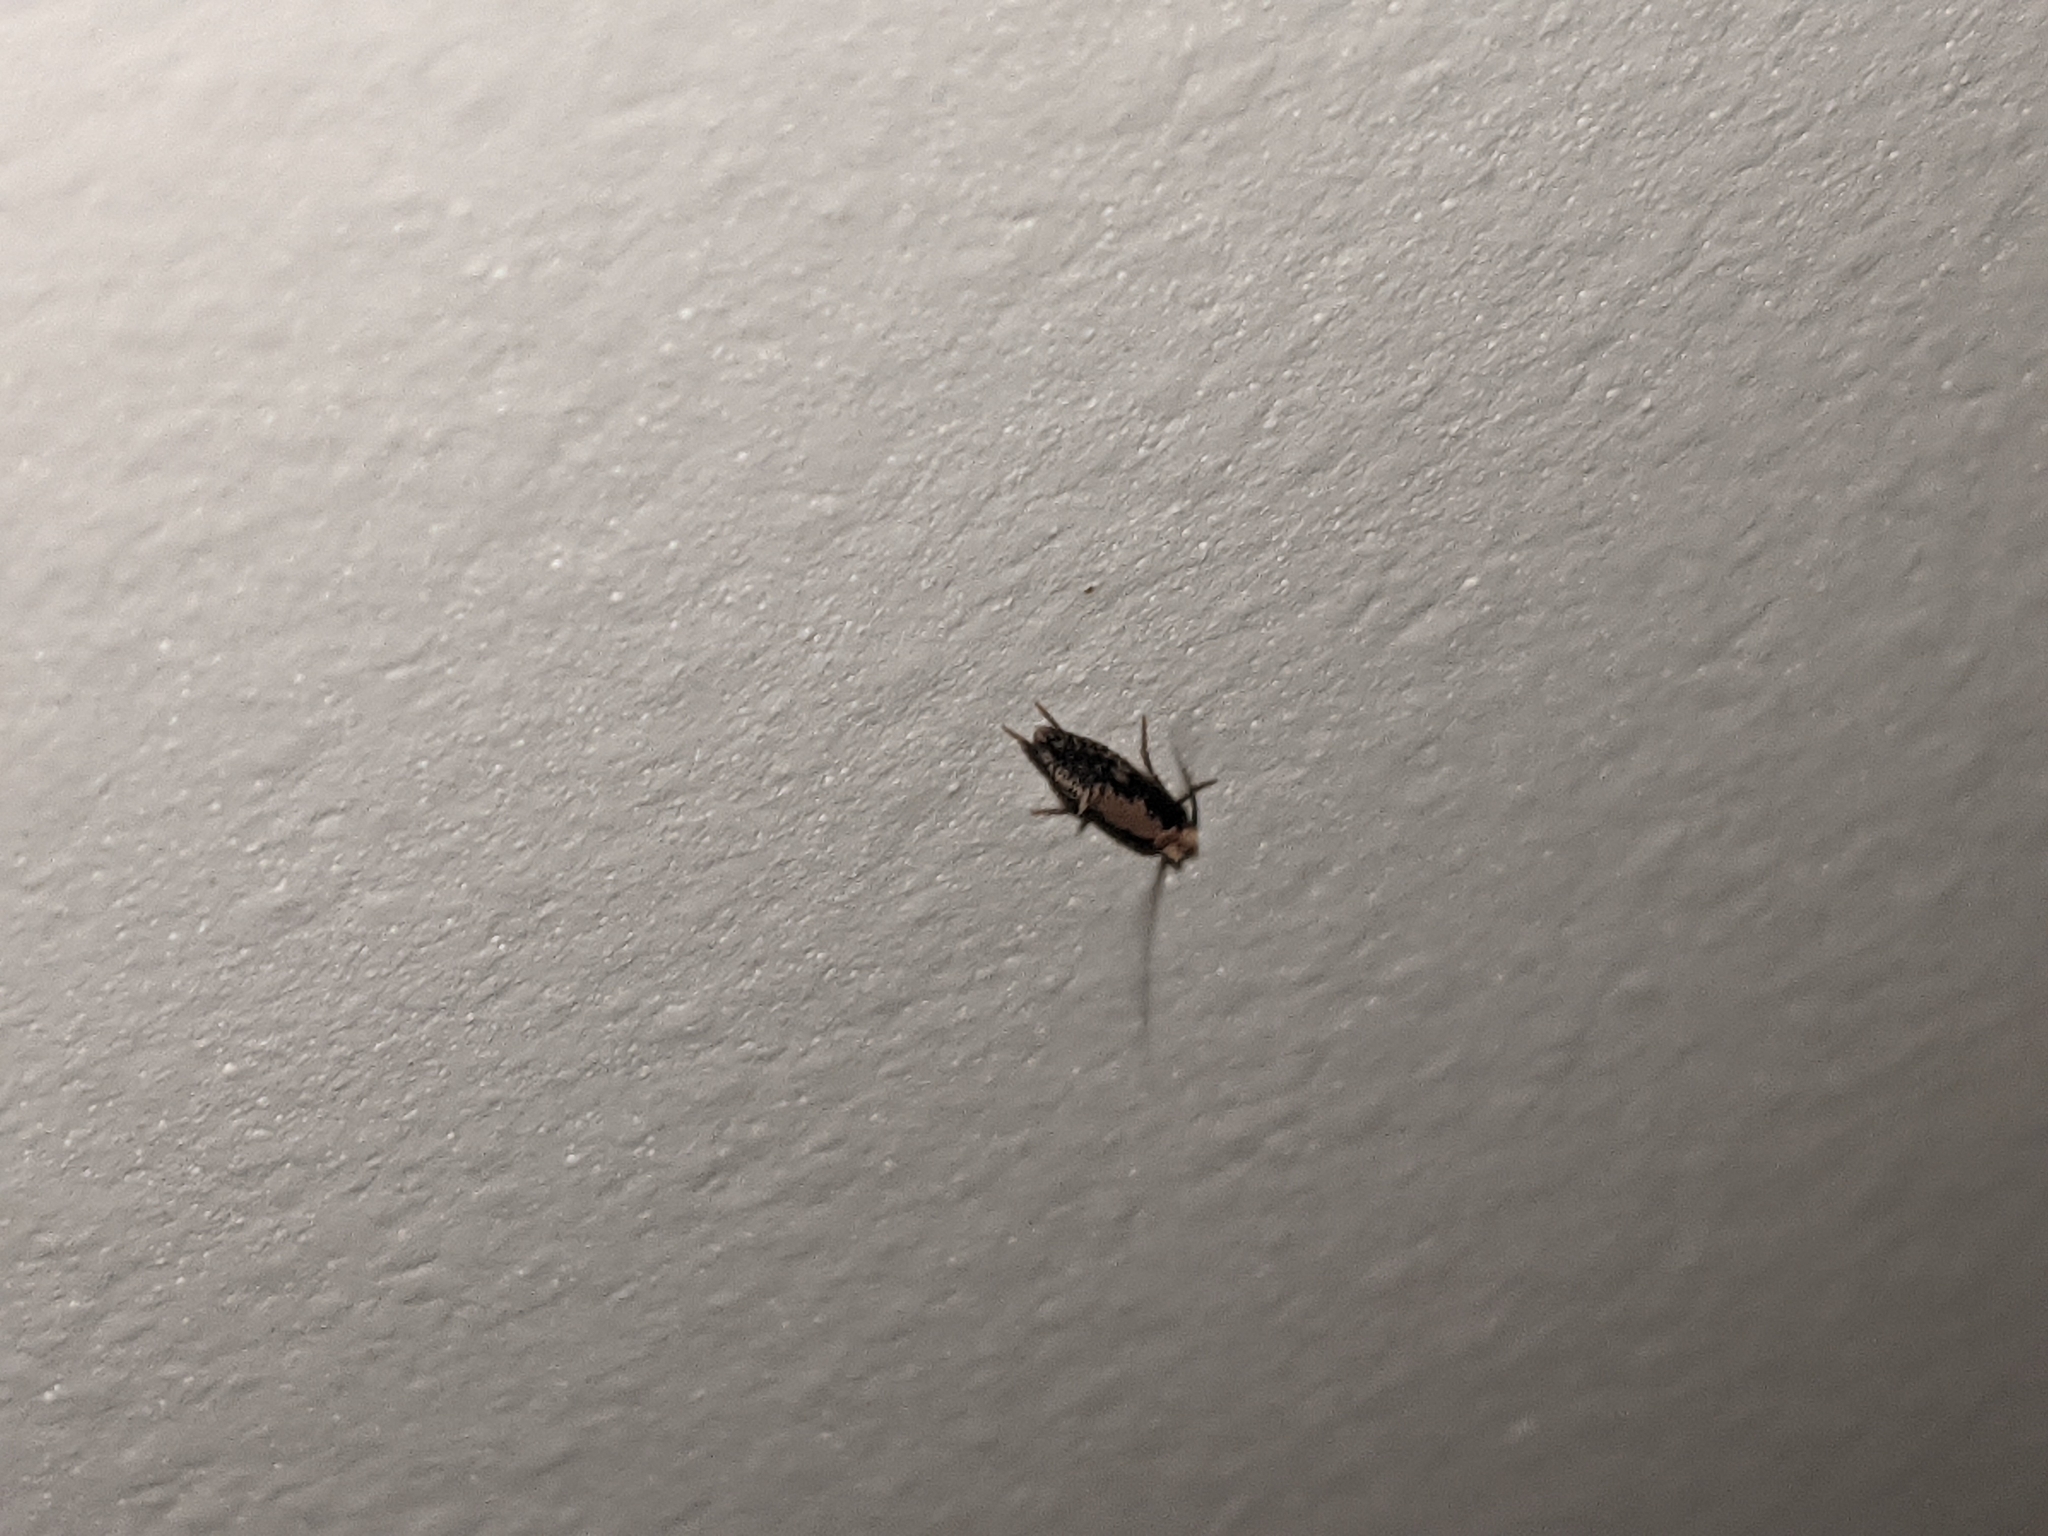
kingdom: Animalia
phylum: Arthropoda
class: Insecta
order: Lepidoptera
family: Tineidae
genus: Monopis
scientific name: Monopis crocicapitella
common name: Moth
